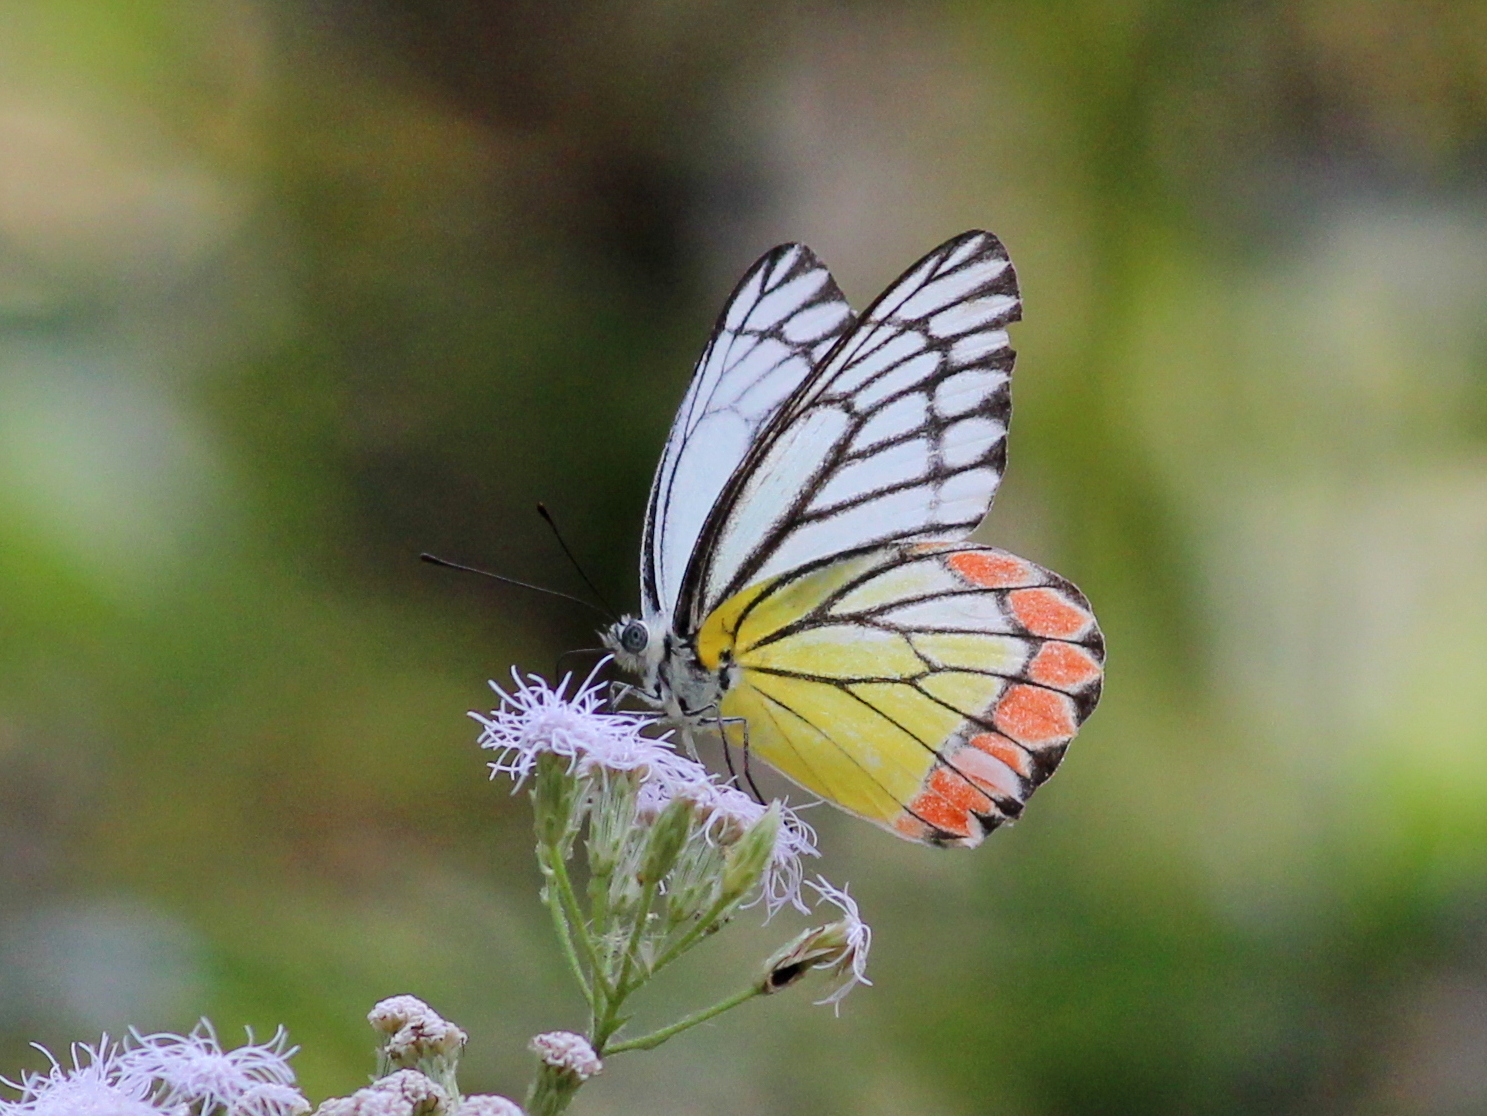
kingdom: Animalia
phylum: Arthropoda
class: Insecta
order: Lepidoptera
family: Pieridae
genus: Delias
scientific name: Delias eucharis
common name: Common jezebel
